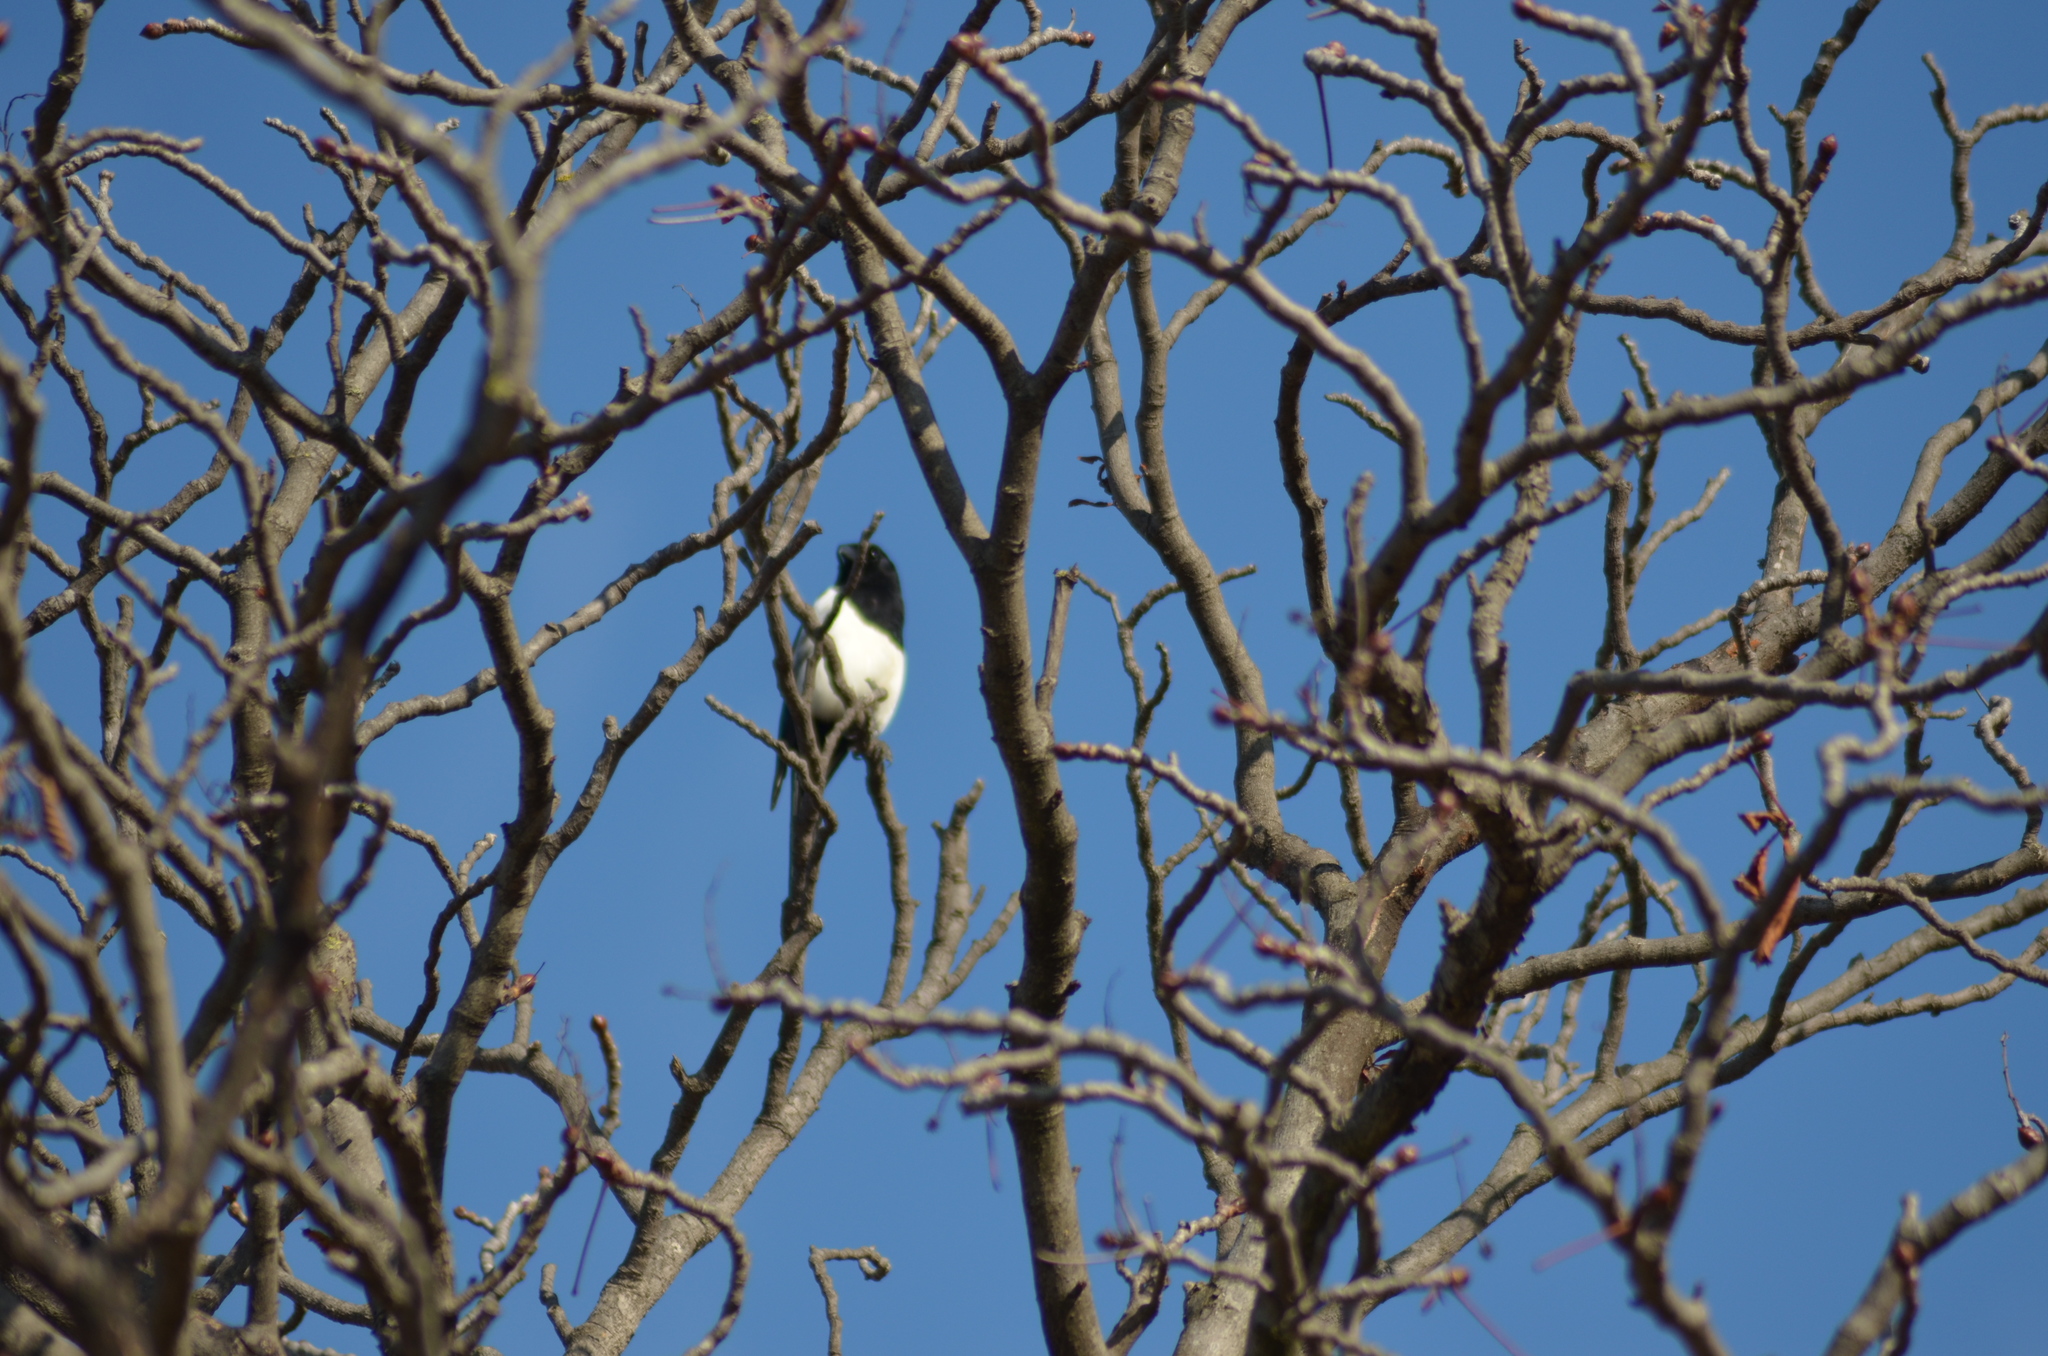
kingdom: Animalia
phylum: Chordata
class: Aves
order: Passeriformes
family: Corvidae
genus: Pica
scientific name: Pica pica
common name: Eurasian magpie
